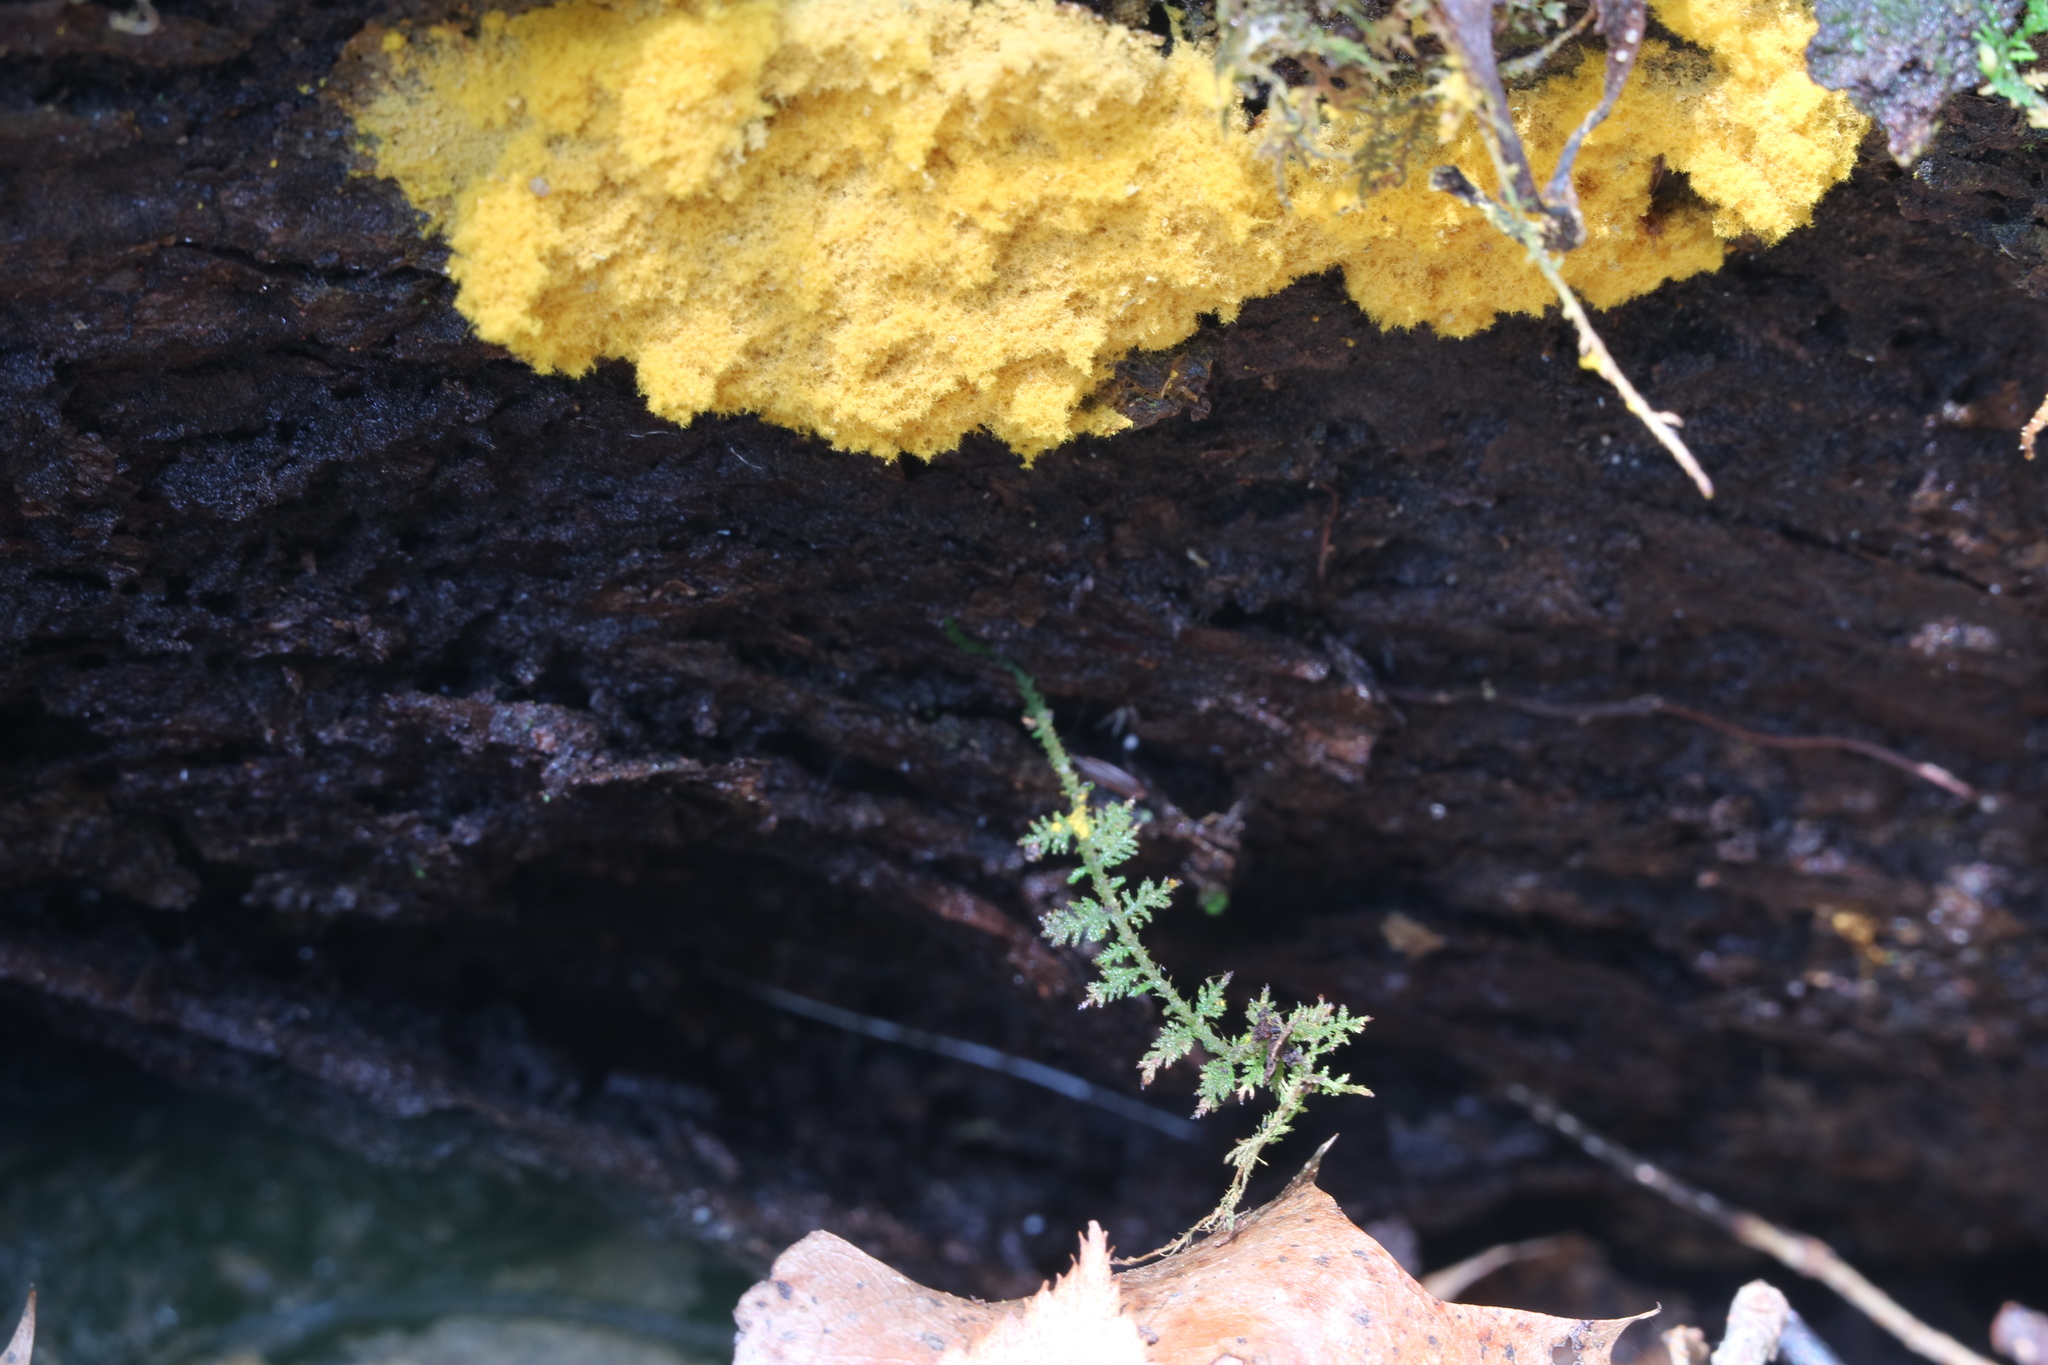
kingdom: Protozoa
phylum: Mycetozoa
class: Myxomycetes
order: Trichiales
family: Trichiaceae
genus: Oligonema
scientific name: Oligonema favogineum
